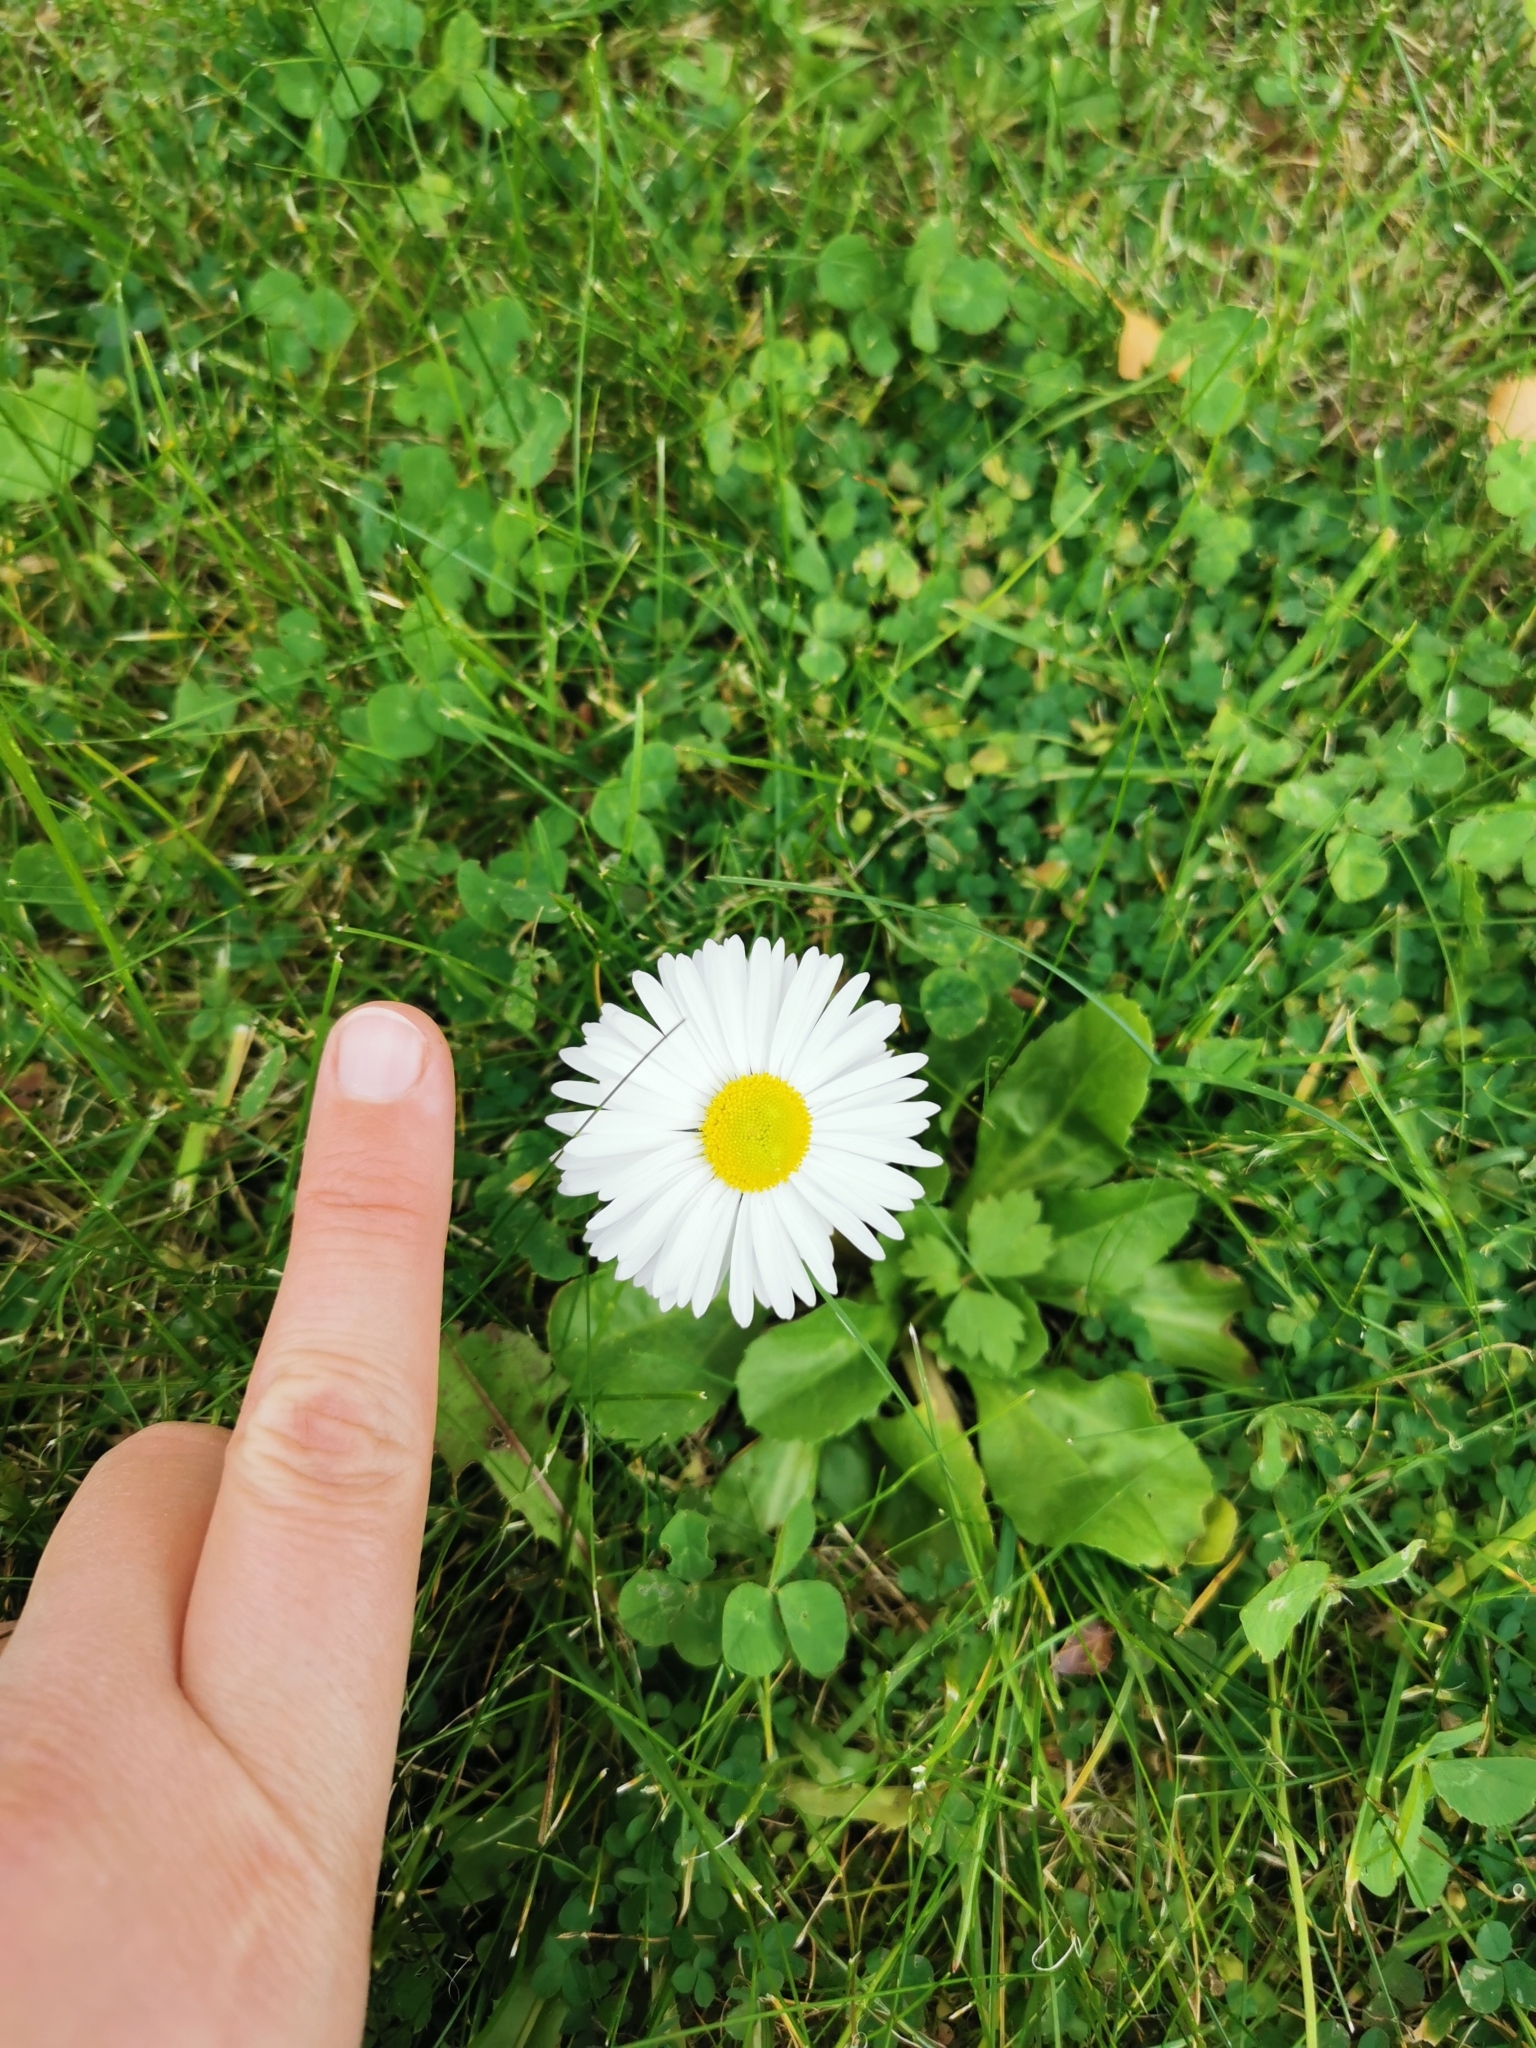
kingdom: Plantae
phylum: Tracheophyta
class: Magnoliopsida
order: Asterales
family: Asteraceae
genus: Bellis
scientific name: Bellis perennis
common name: Lawndaisy
